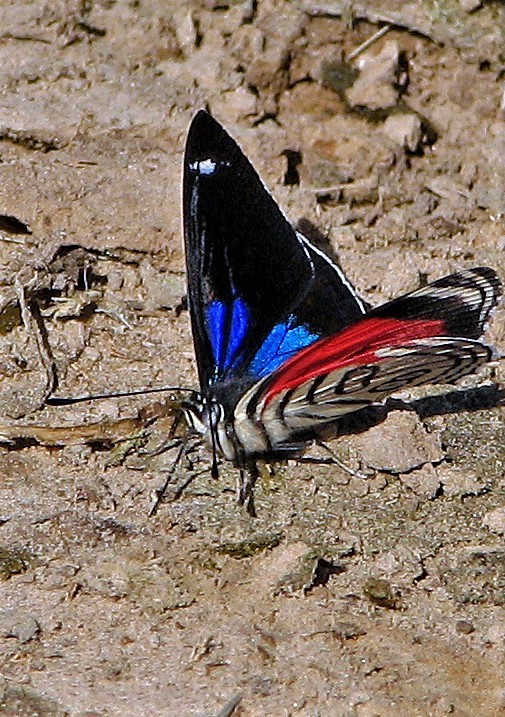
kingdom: Animalia
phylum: Arthropoda
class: Insecta
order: Lepidoptera
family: Nymphalidae
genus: Diaethria
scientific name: Diaethria candrena
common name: Number eighty
